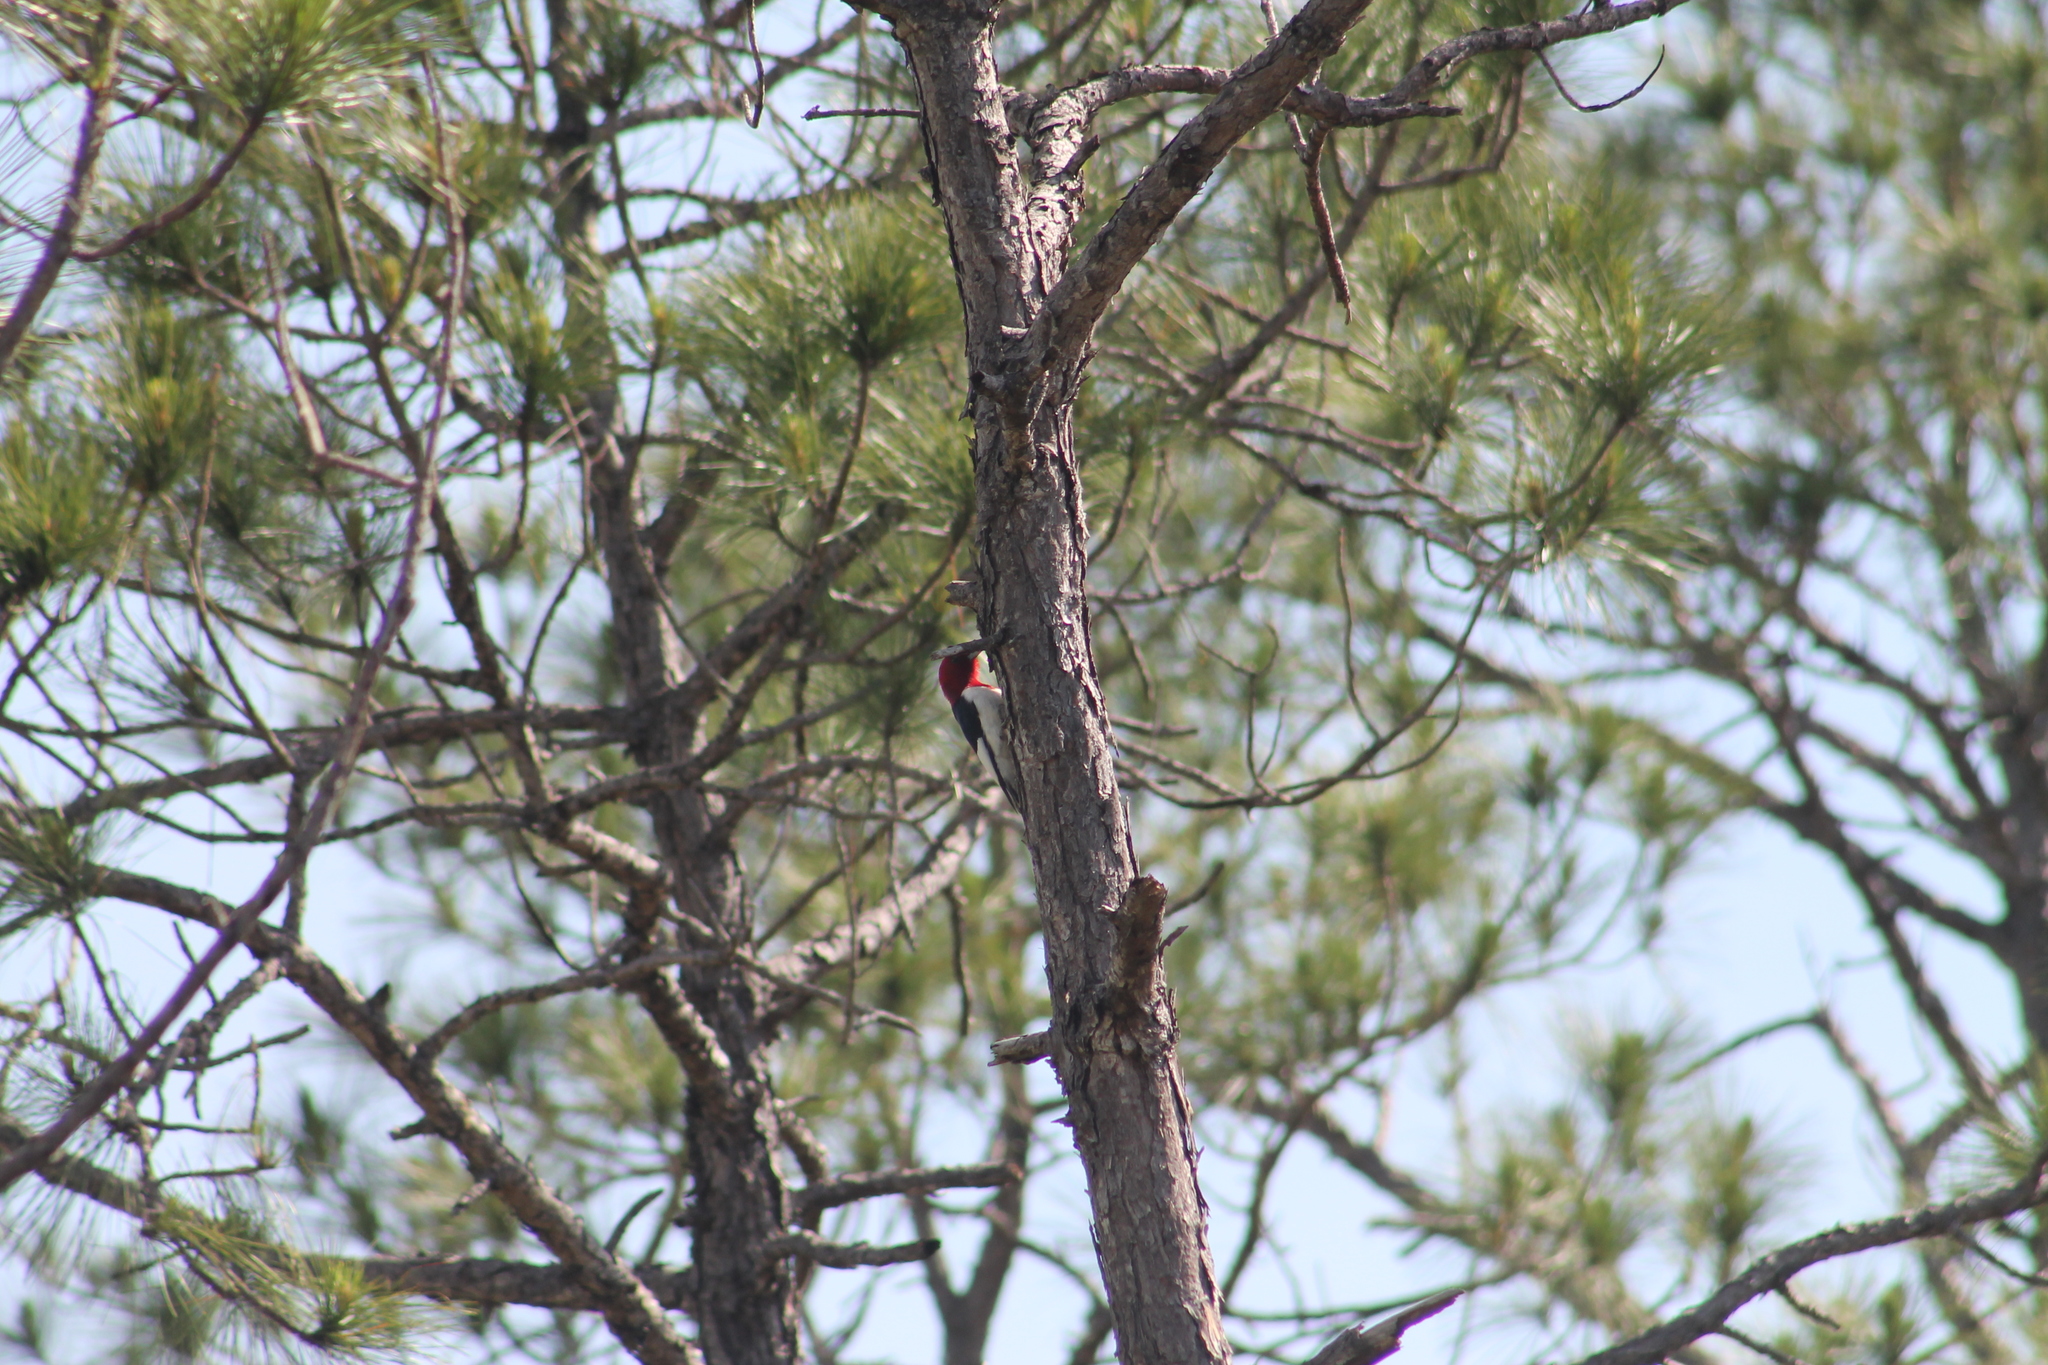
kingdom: Animalia
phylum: Chordata
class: Aves
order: Piciformes
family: Picidae
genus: Melanerpes
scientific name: Melanerpes erythrocephalus
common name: Red-headed woodpecker
